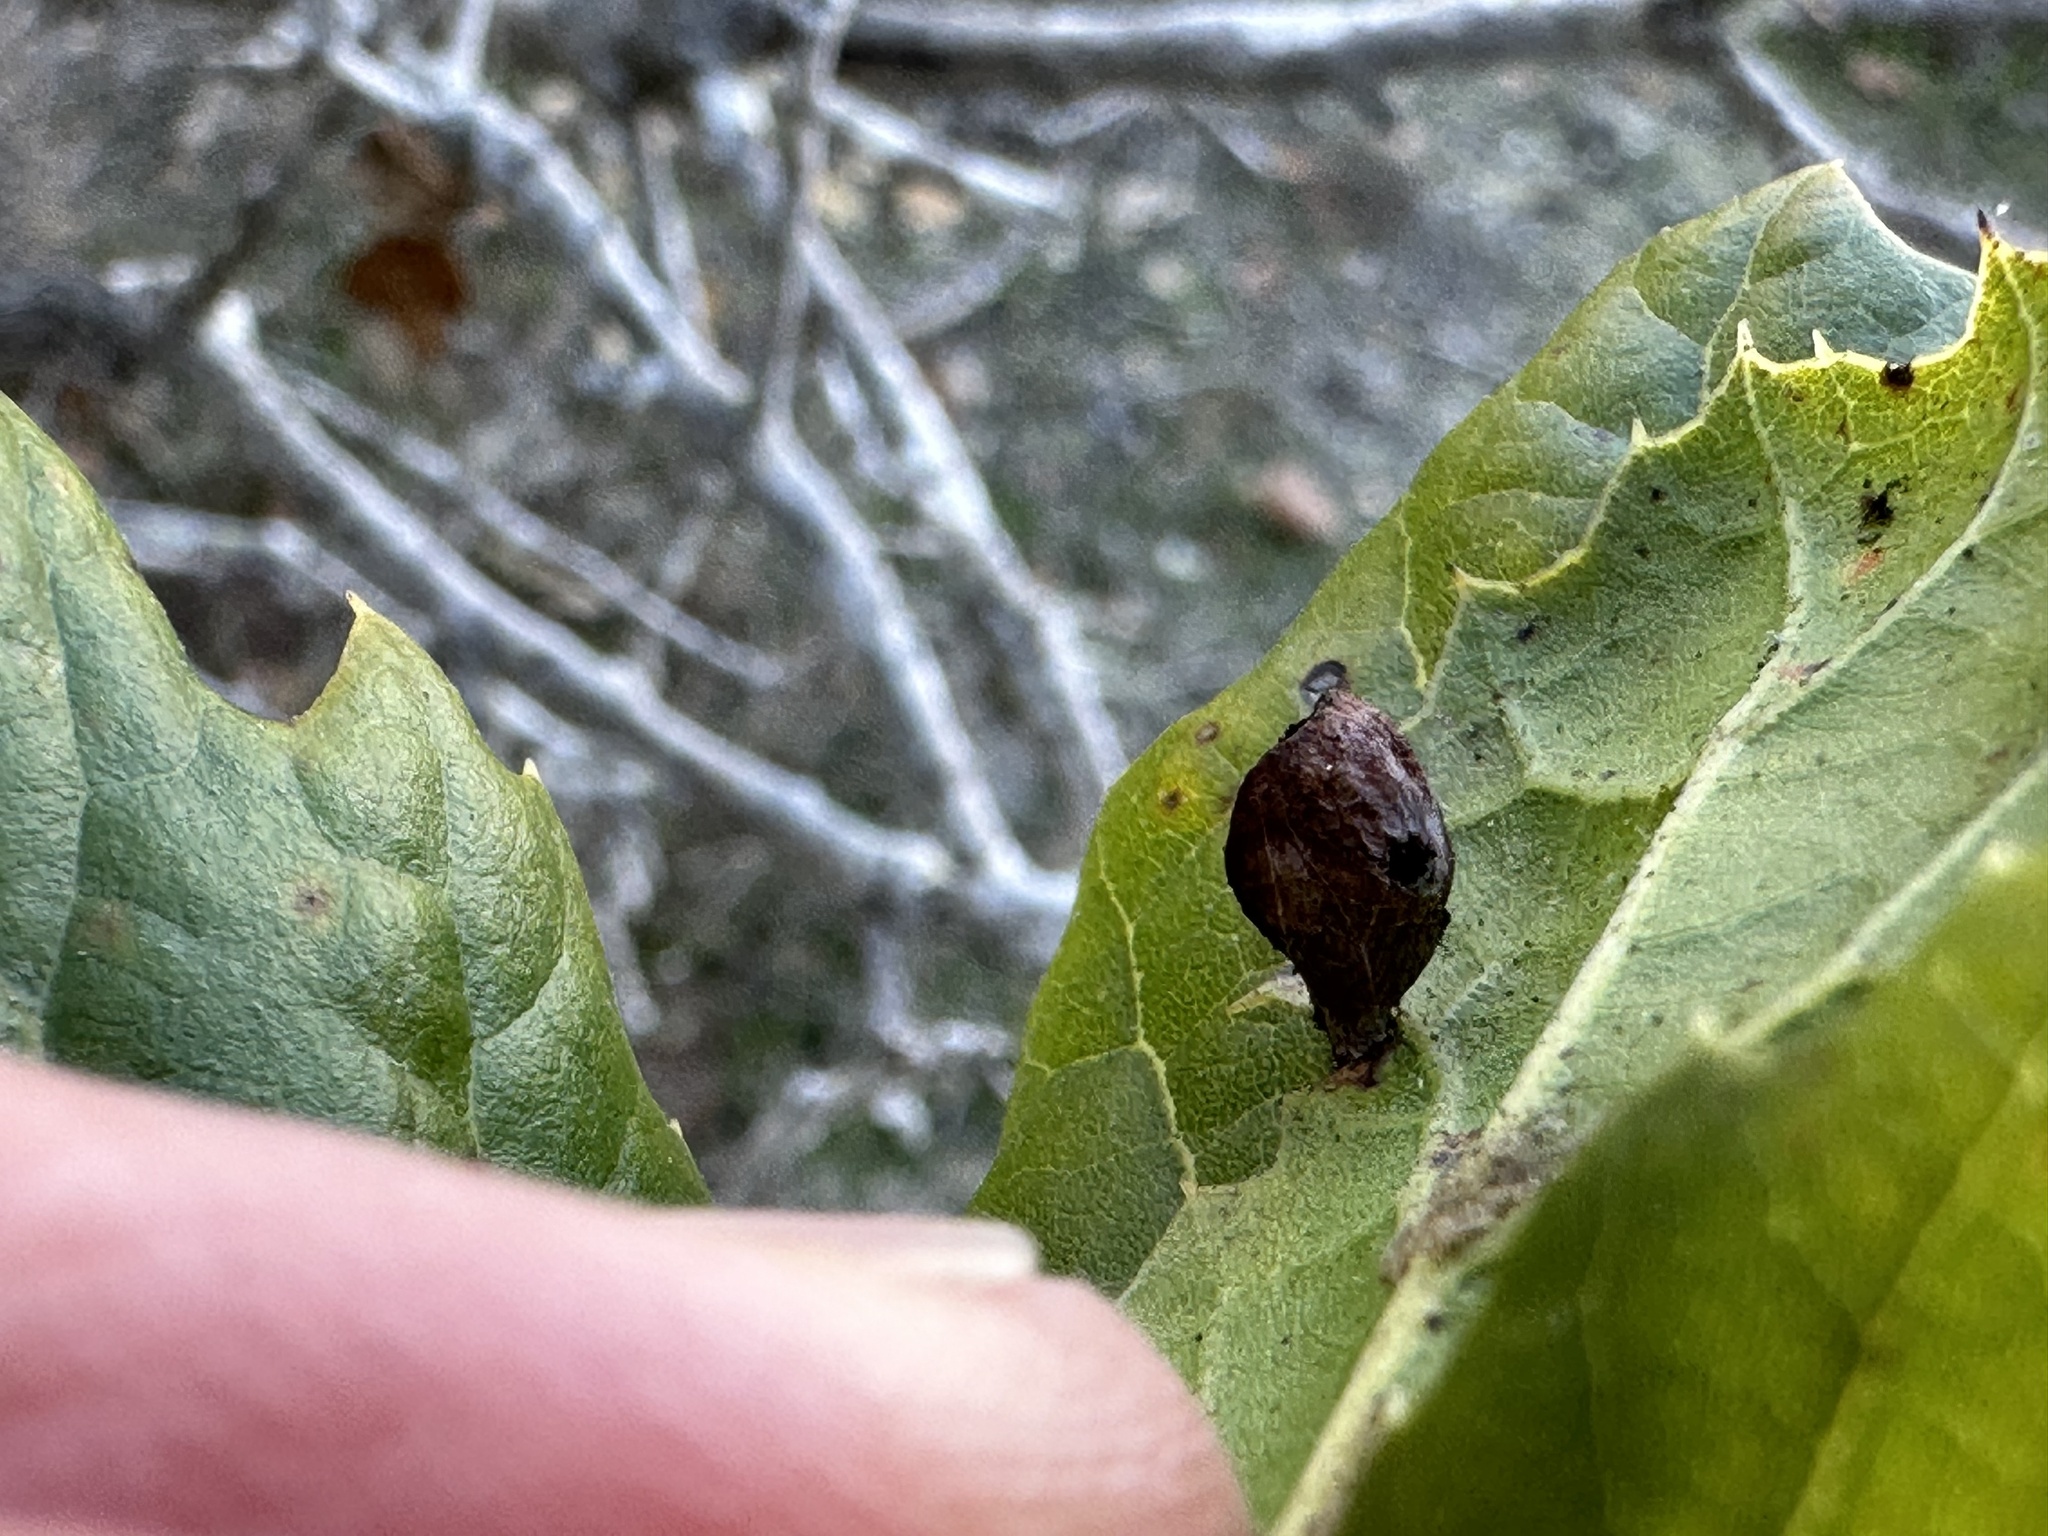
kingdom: Animalia
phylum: Arthropoda
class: Insecta
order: Hymenoptera
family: Cynipidae
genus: Amphibolips
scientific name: Amphibolips quercuspomiformis
